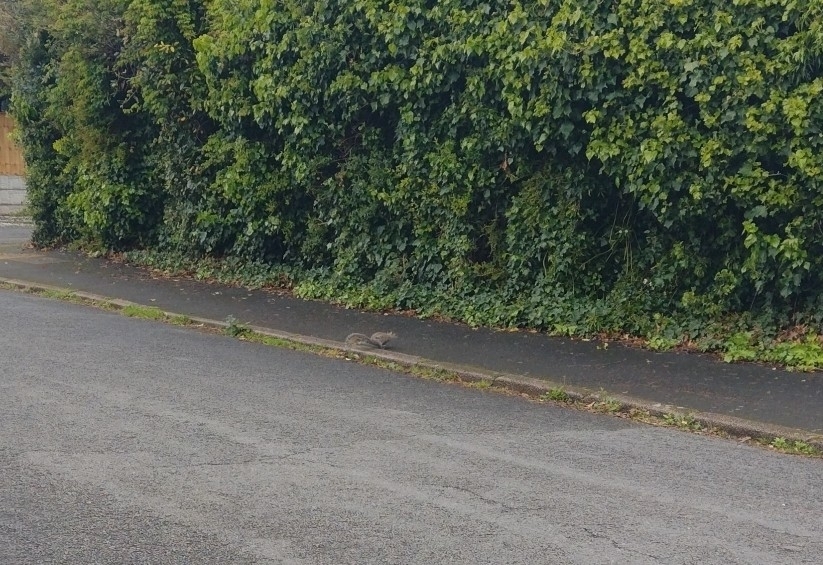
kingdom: Animalia
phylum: Chordata
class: Mammalia
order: Rodentia
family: Sciuridae
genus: Sciurus
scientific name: Sciurus carolinensis
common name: Eastern gray squirrel
